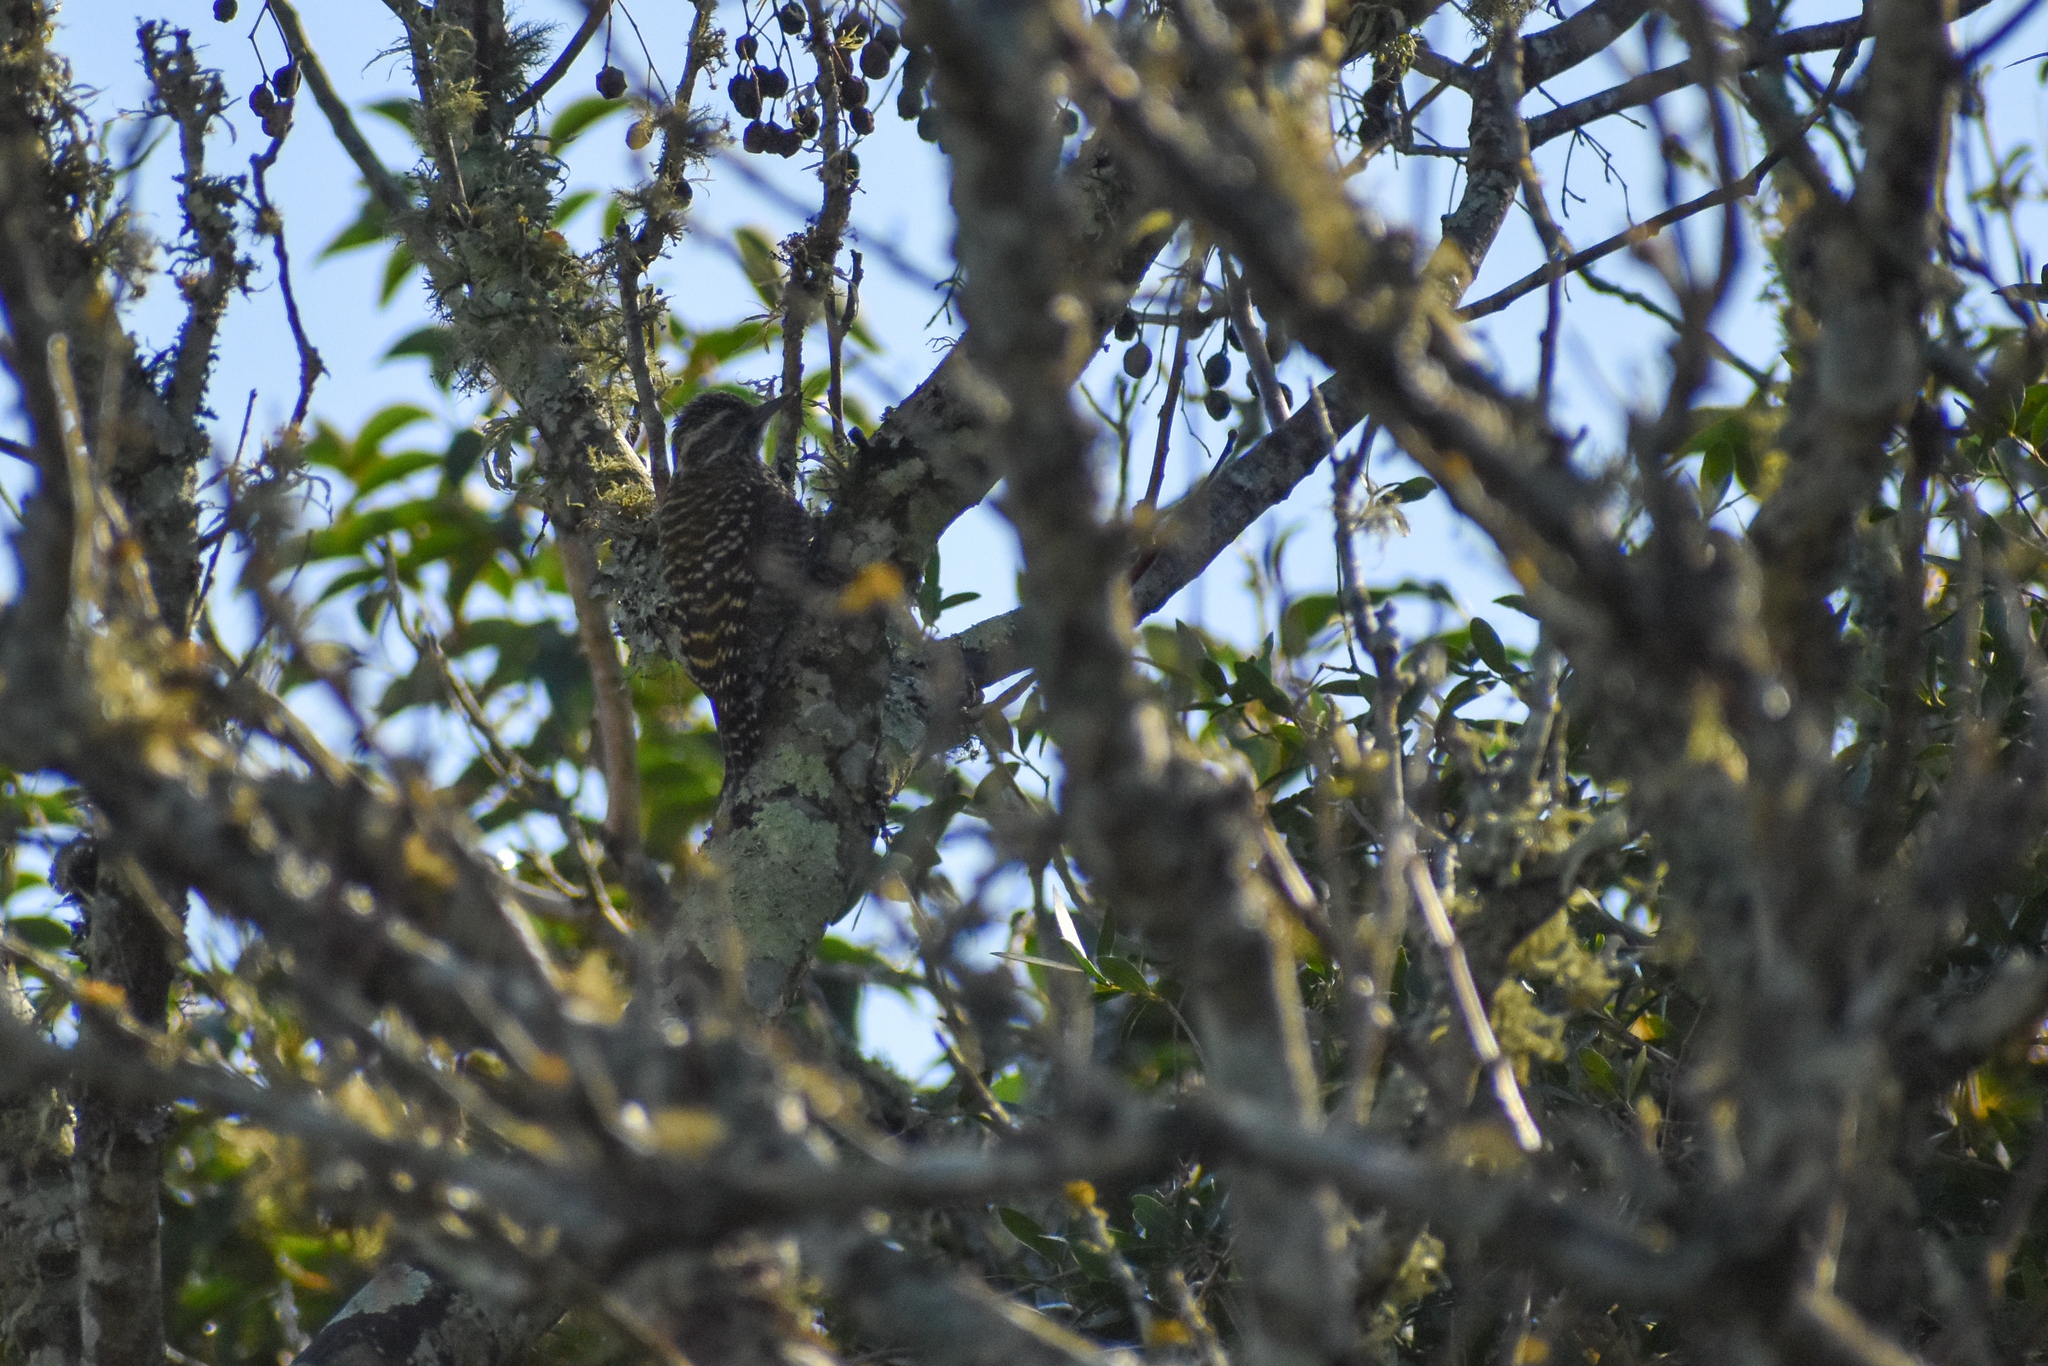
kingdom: Animalia
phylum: Chordata
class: Aves
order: Piciformes
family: Picidae
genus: Veniliornis
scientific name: Veniliornis spilogaster
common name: White-spotted woodpecker
